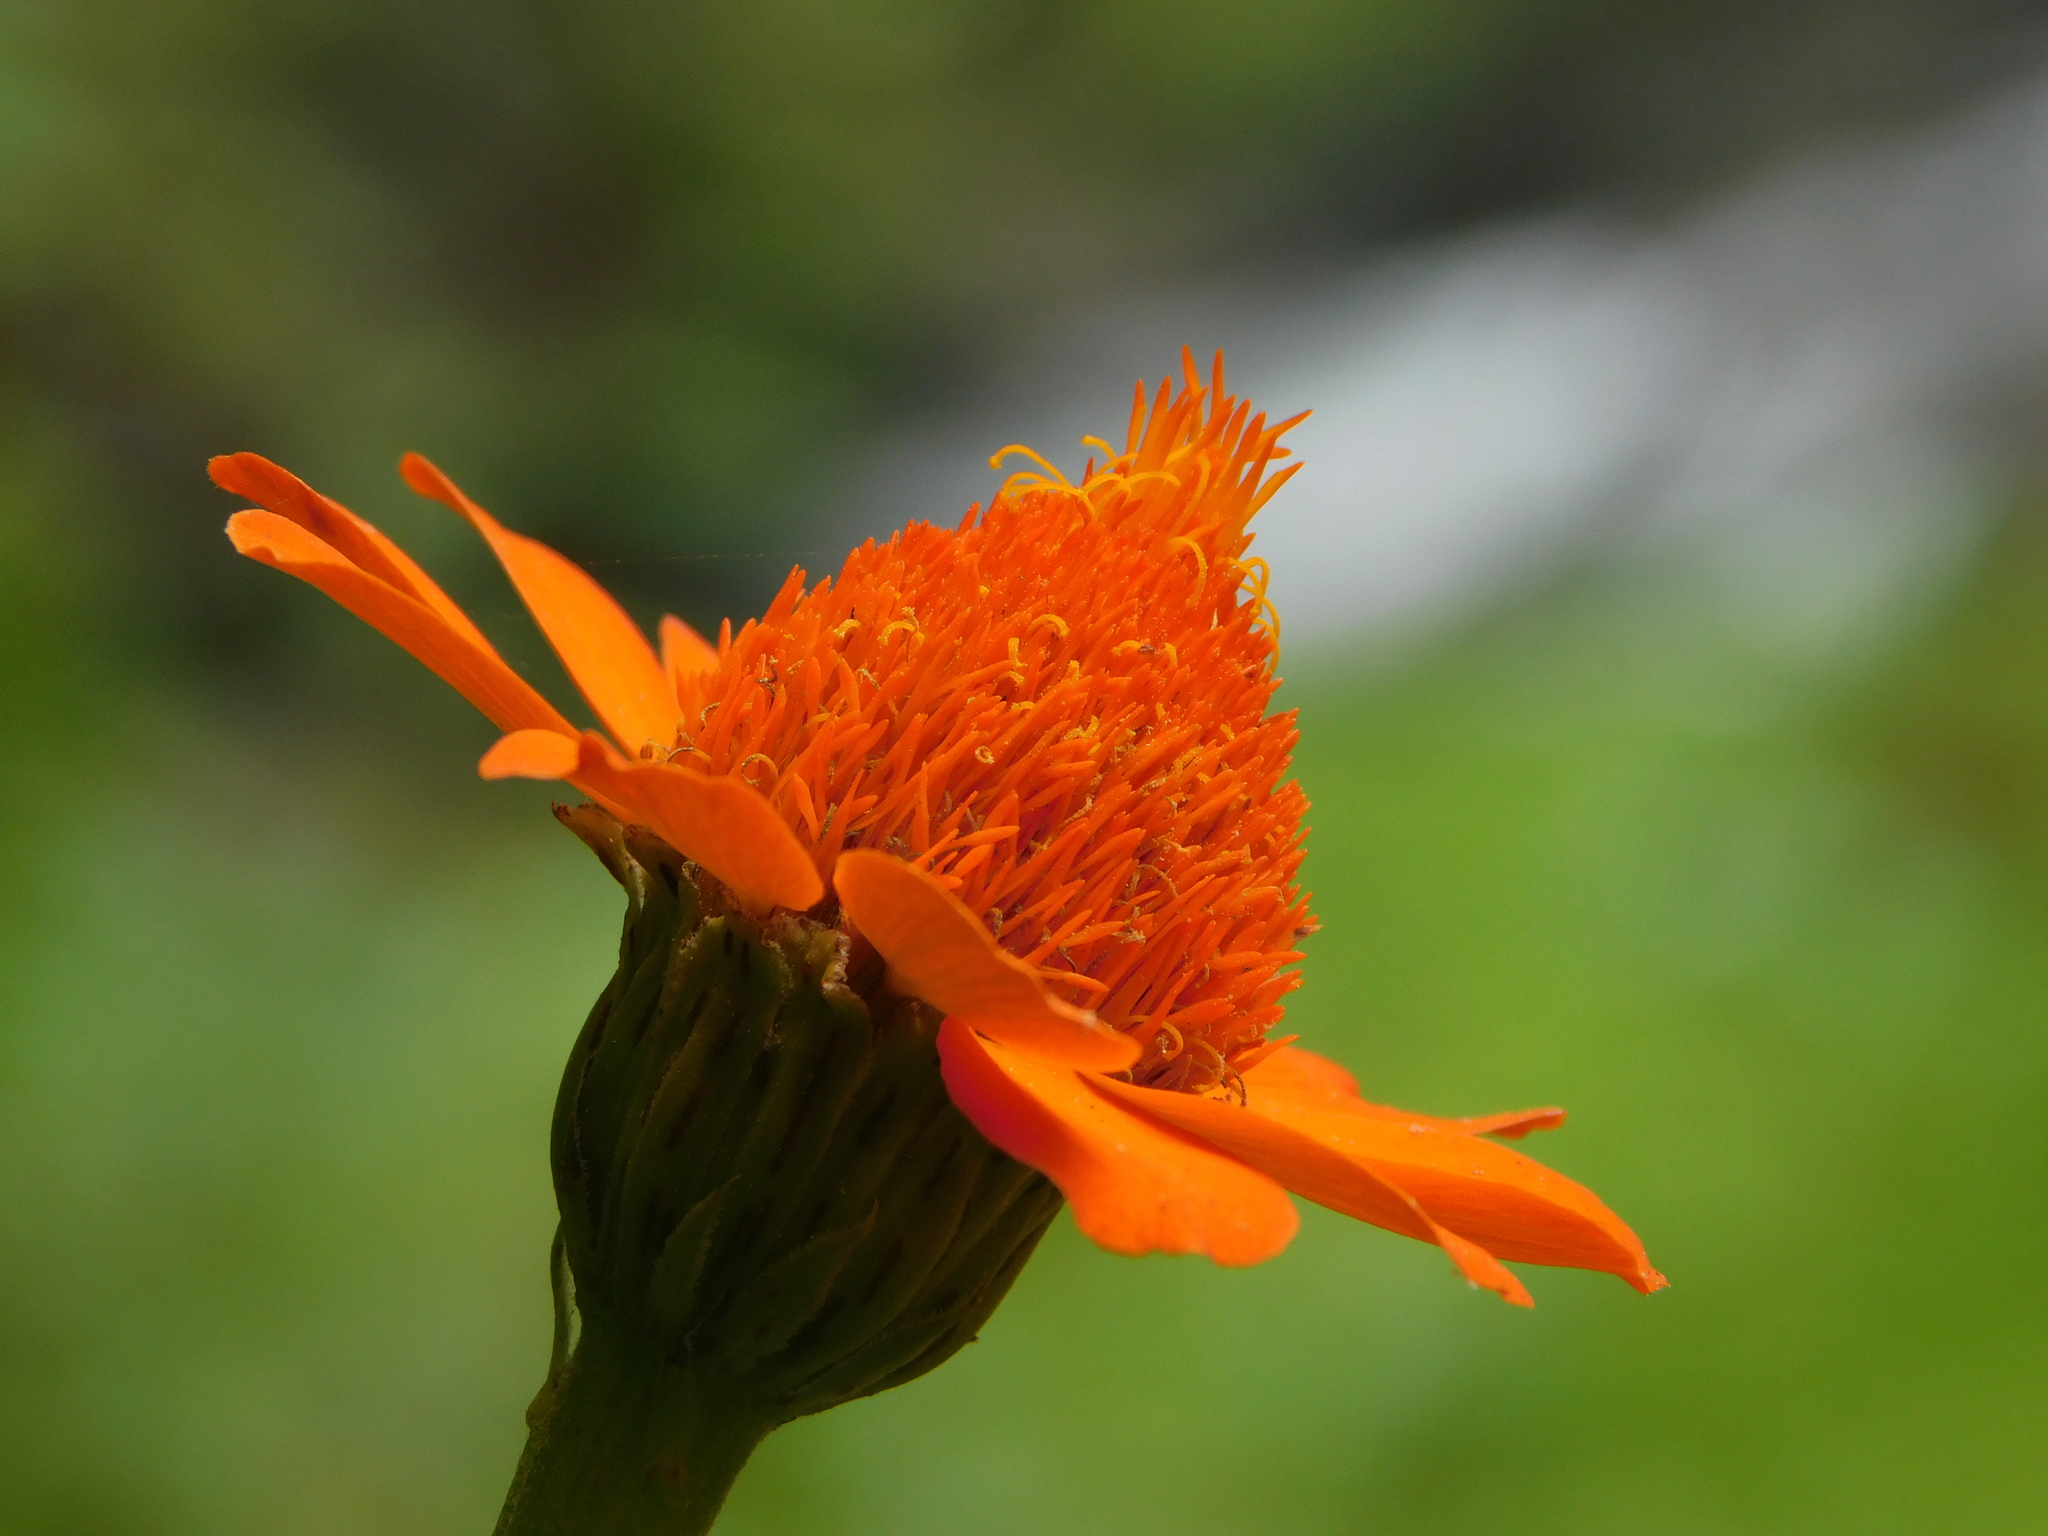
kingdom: Plantae
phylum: Tracheophyta
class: Magnoliopsida
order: Asterales
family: Asteraceae
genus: Adenophyllum
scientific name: Adenophyllum aurantium
